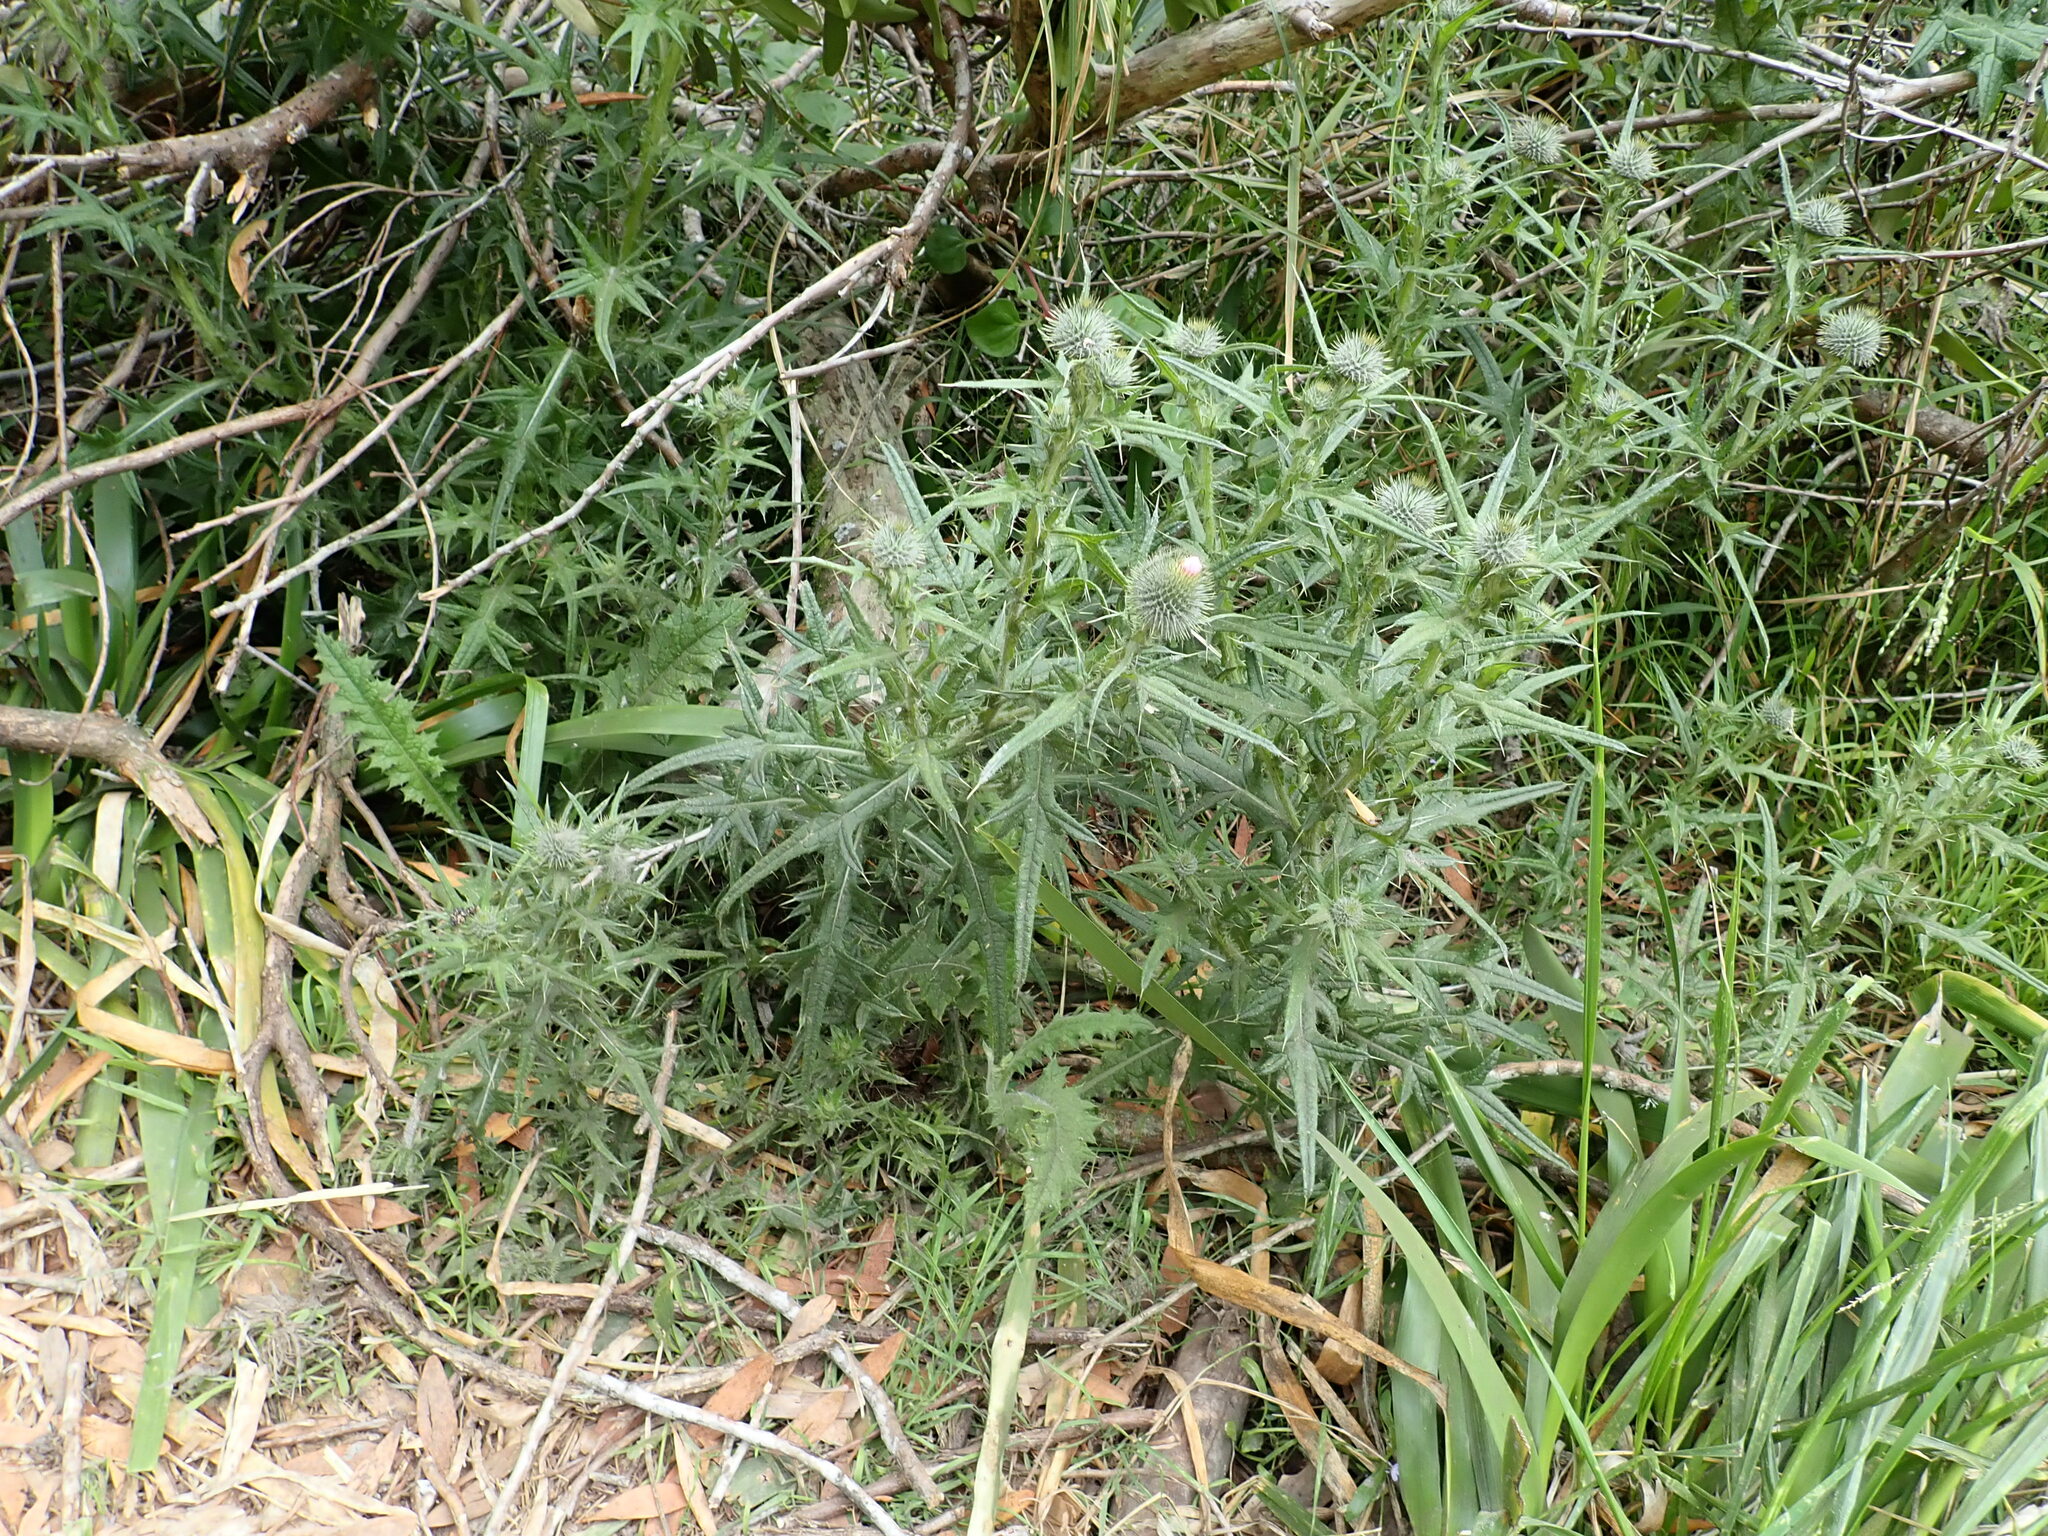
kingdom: Plantae
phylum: Tracheophyta
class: Magnoliopsida
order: Asterales
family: Asteraceae
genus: Cirsium
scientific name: Cirsium vulgare
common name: Bull thistle
